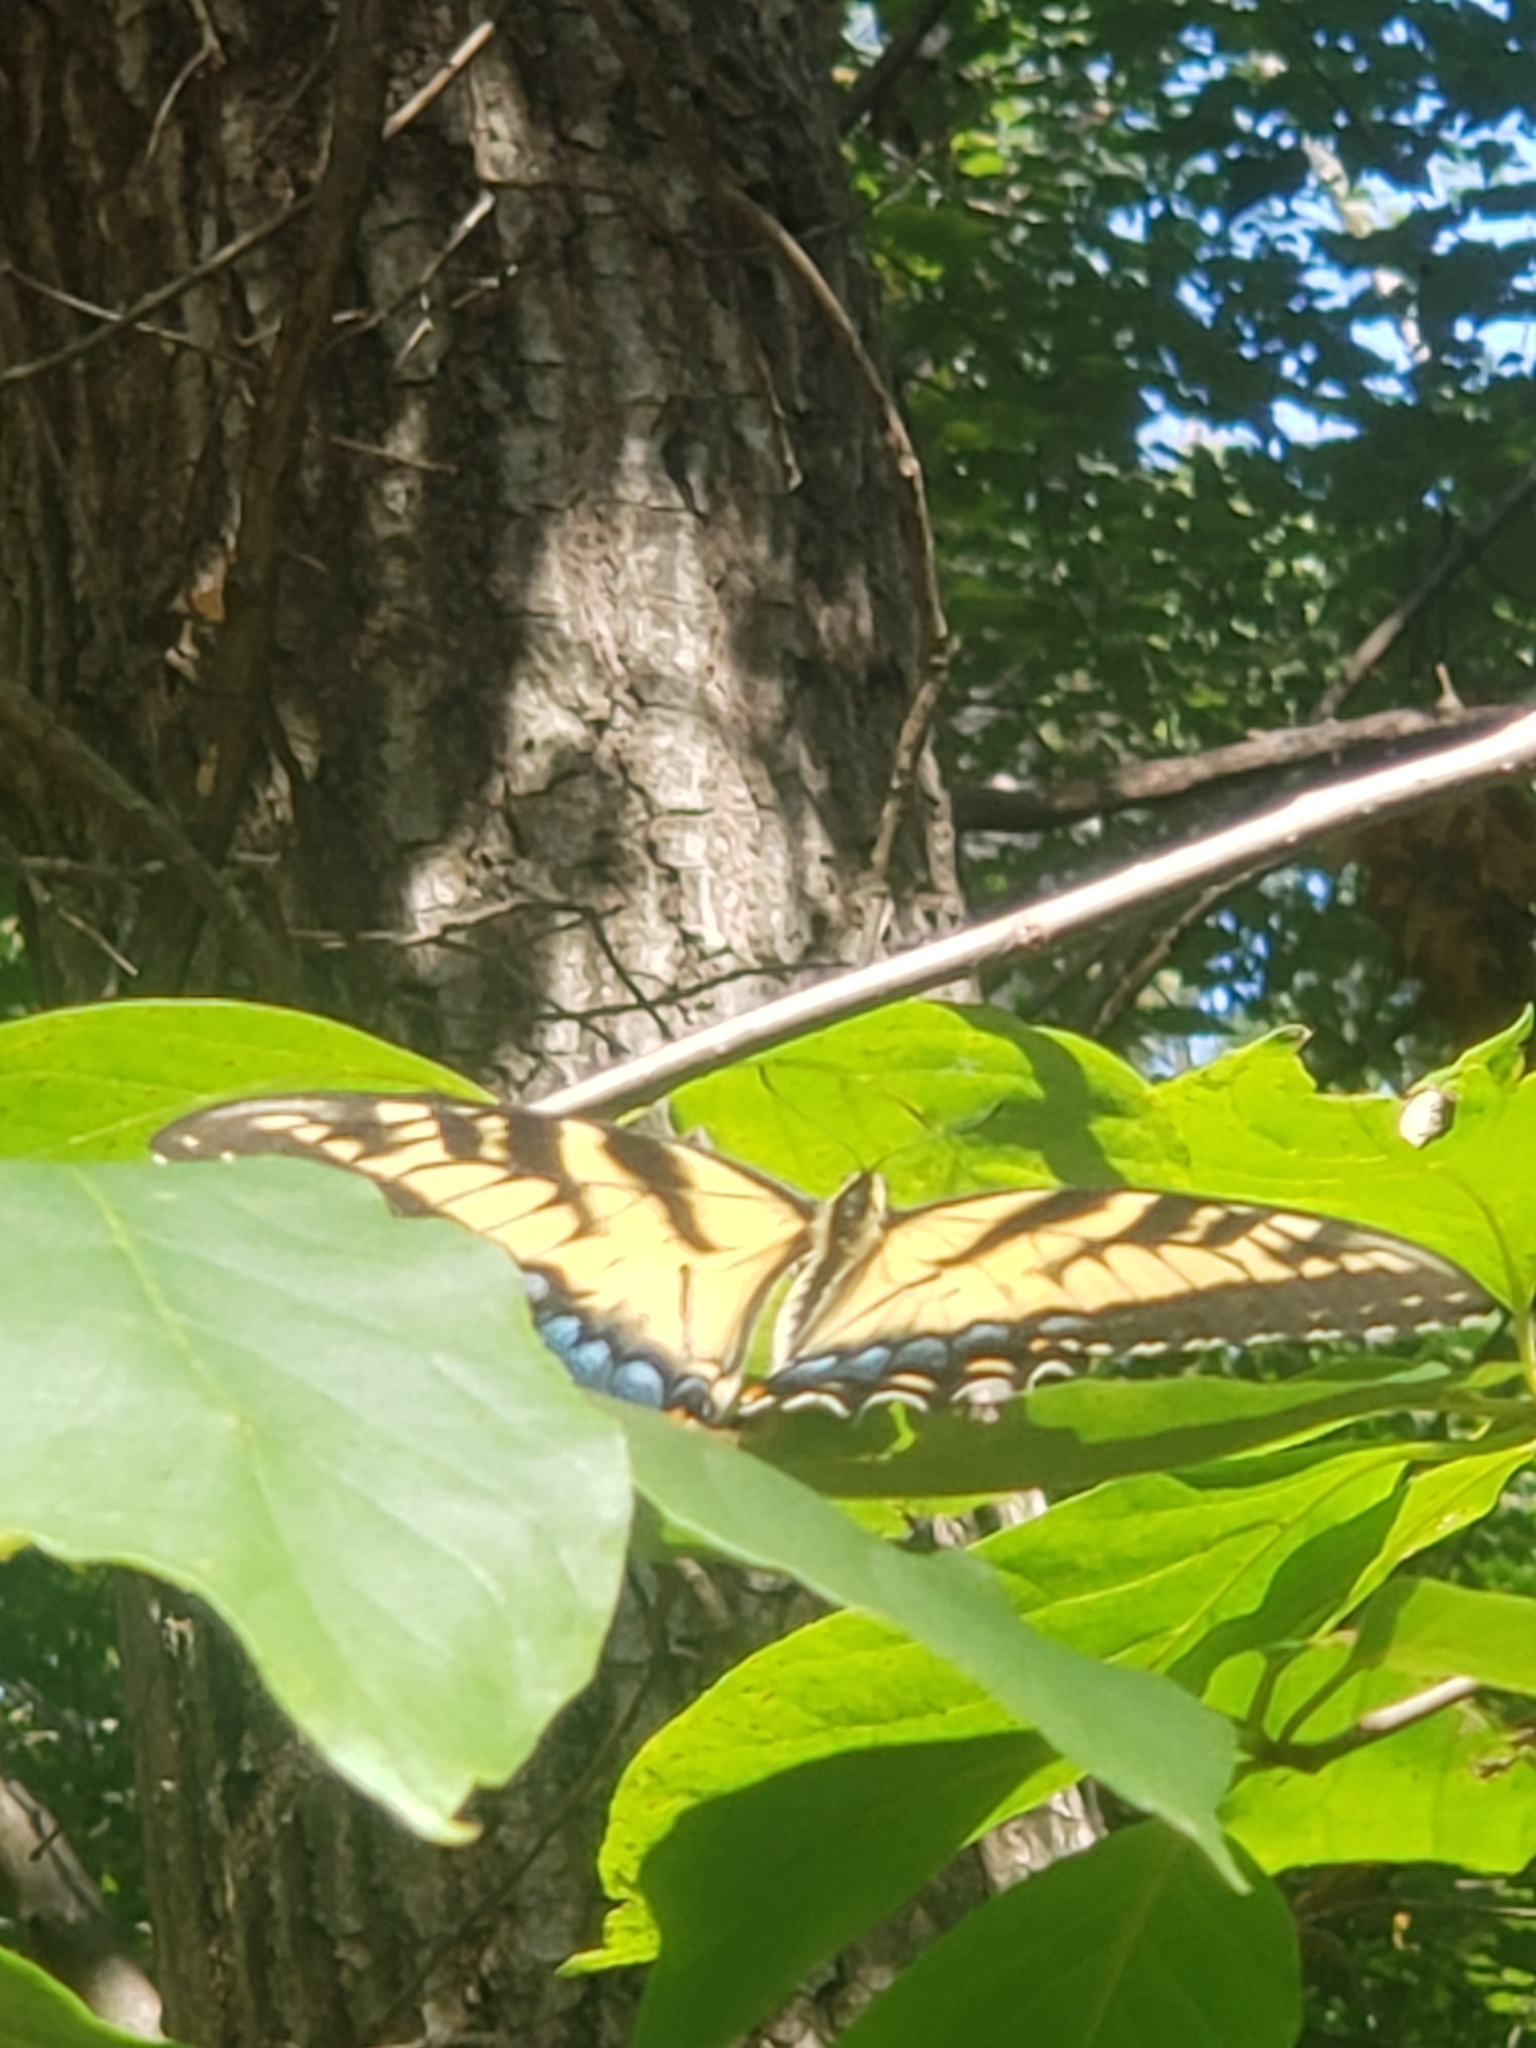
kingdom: Animalia
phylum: Arthropoda
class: Insecta
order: Lepidoptera
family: Papilionidae
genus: Papilio
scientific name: Papilio glaucus
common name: Tiger swallowtail
